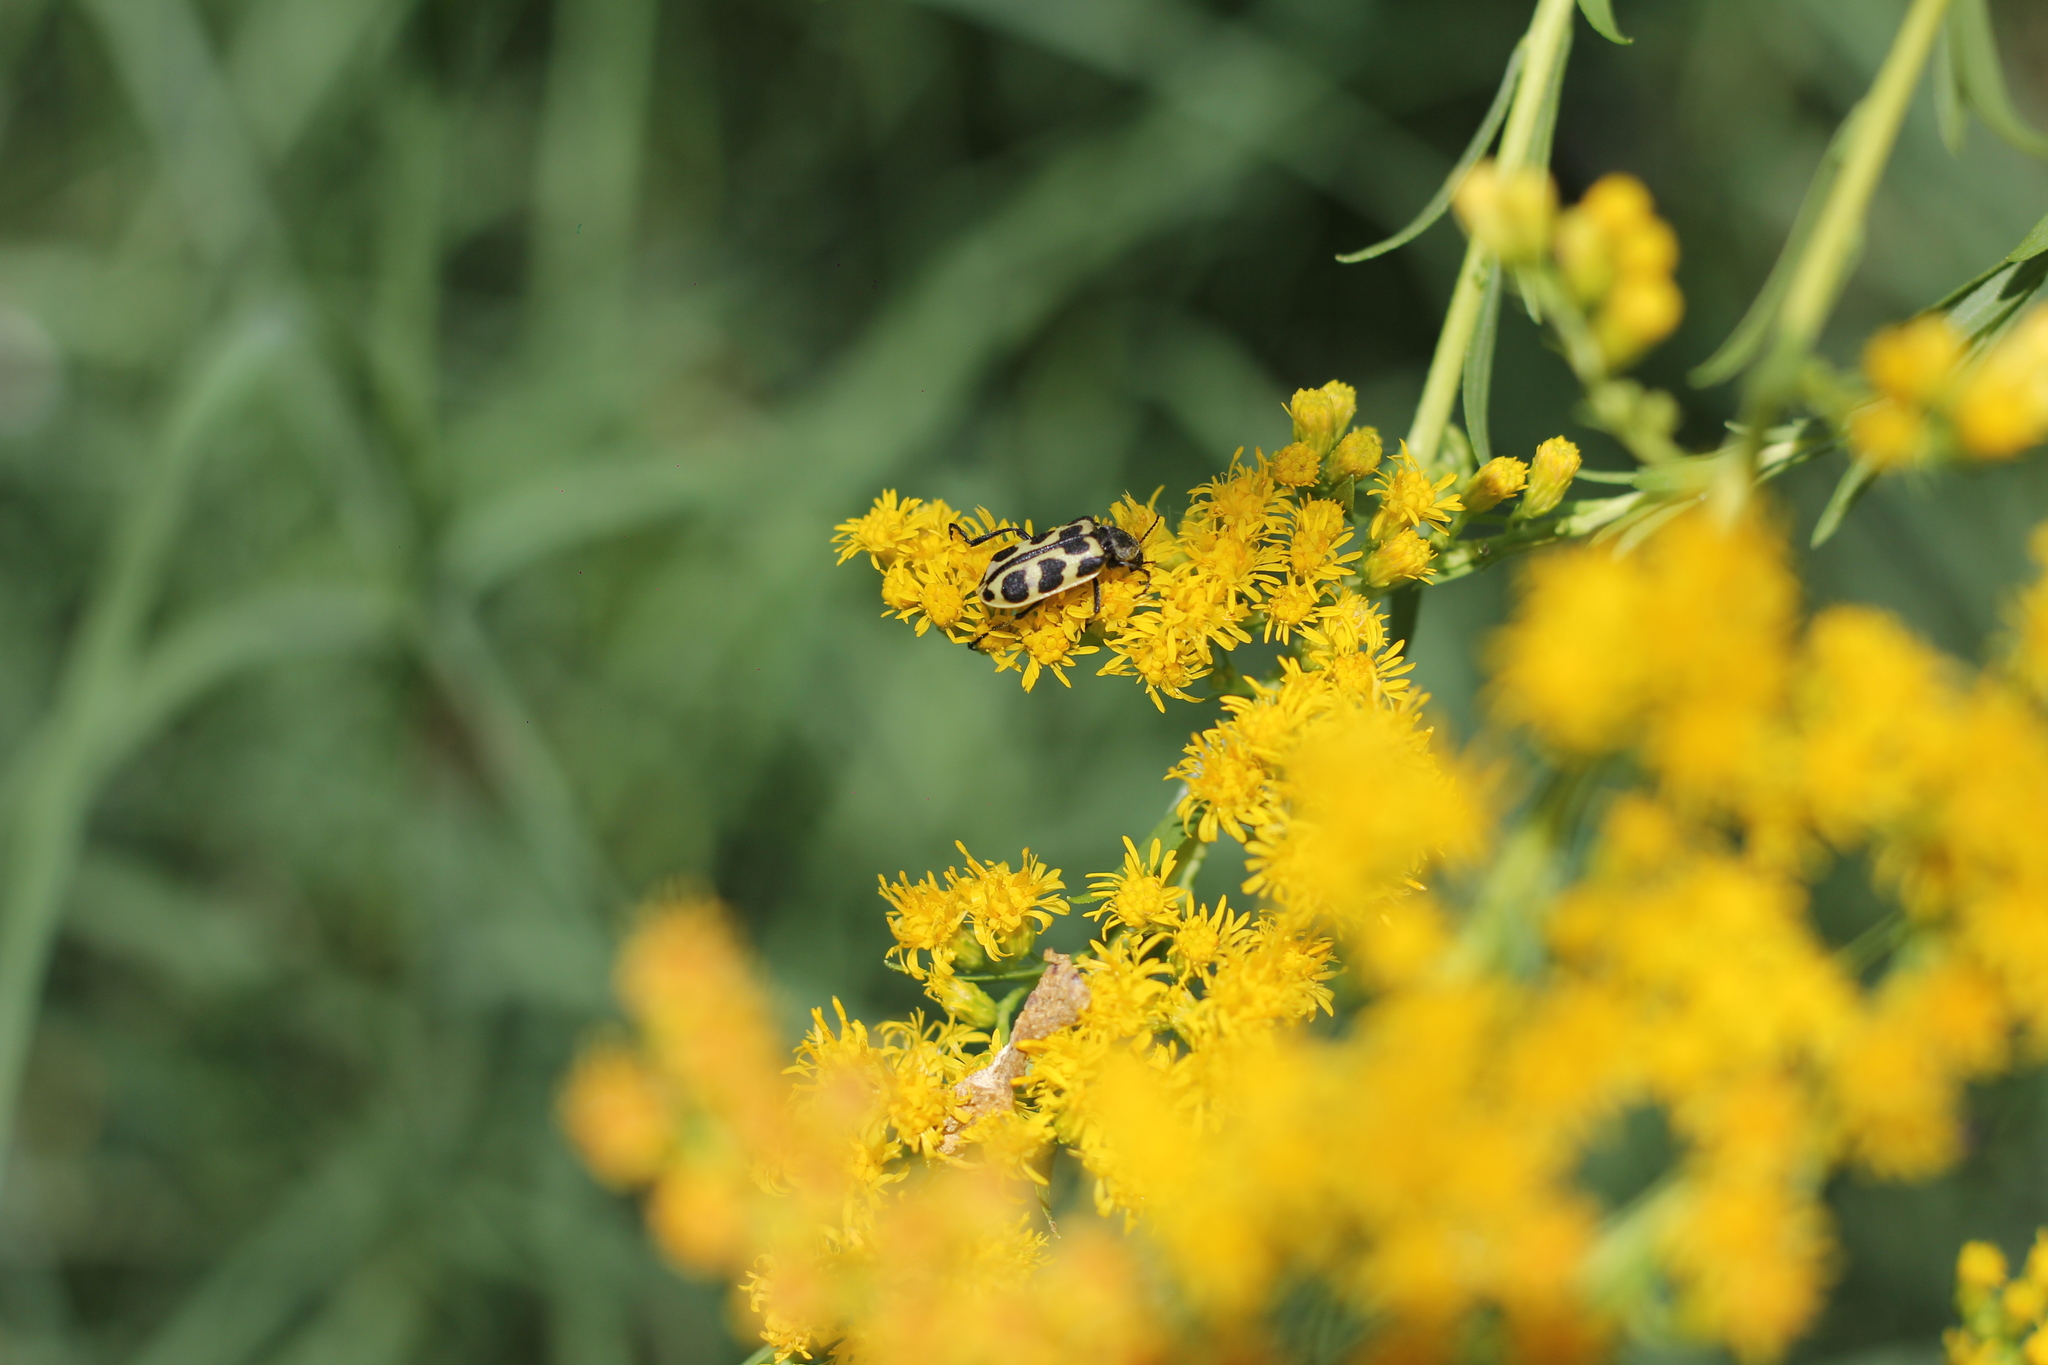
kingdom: Animalia
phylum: Arthropoda
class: Insecta
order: Coleoptera
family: Melyridae
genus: Astylus
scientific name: Astylus atromaculatus
